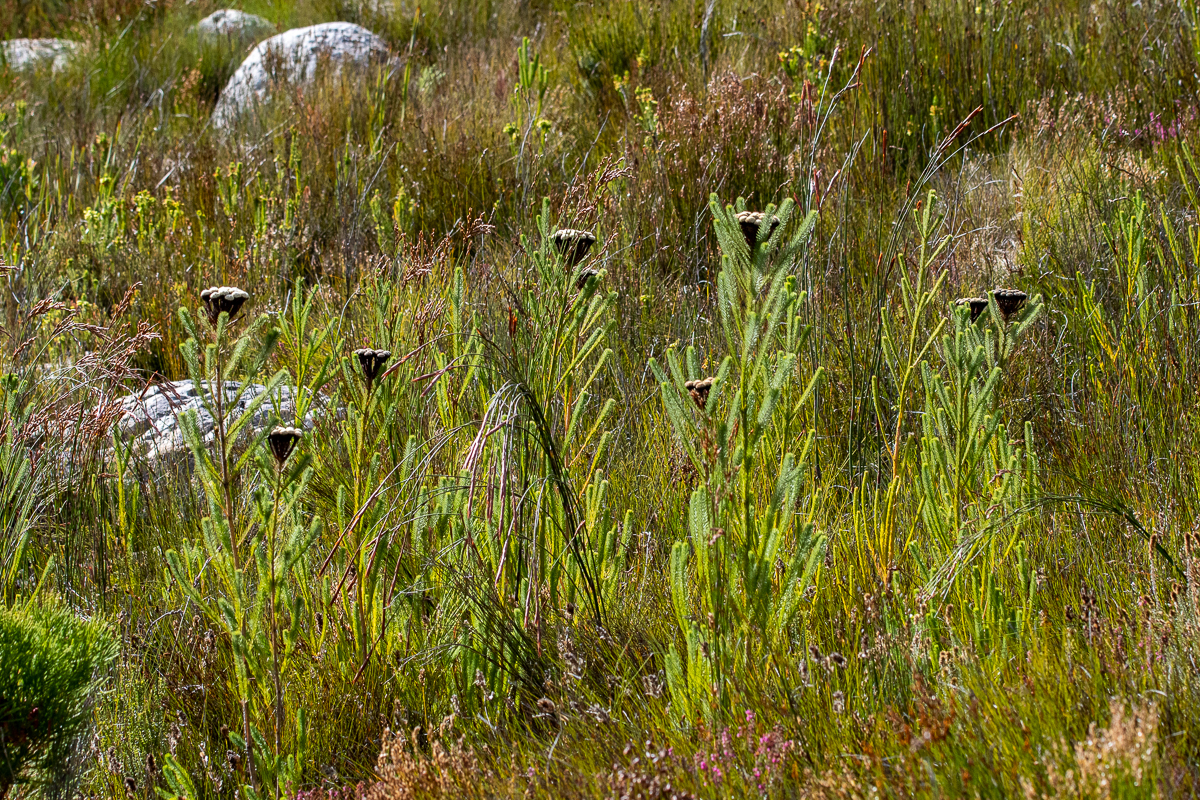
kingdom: Plantae
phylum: Tracheophyta
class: Magnoliopsida
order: Bruniales
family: Bruniaceae
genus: Berzelia
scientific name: Berzelia albiflora
